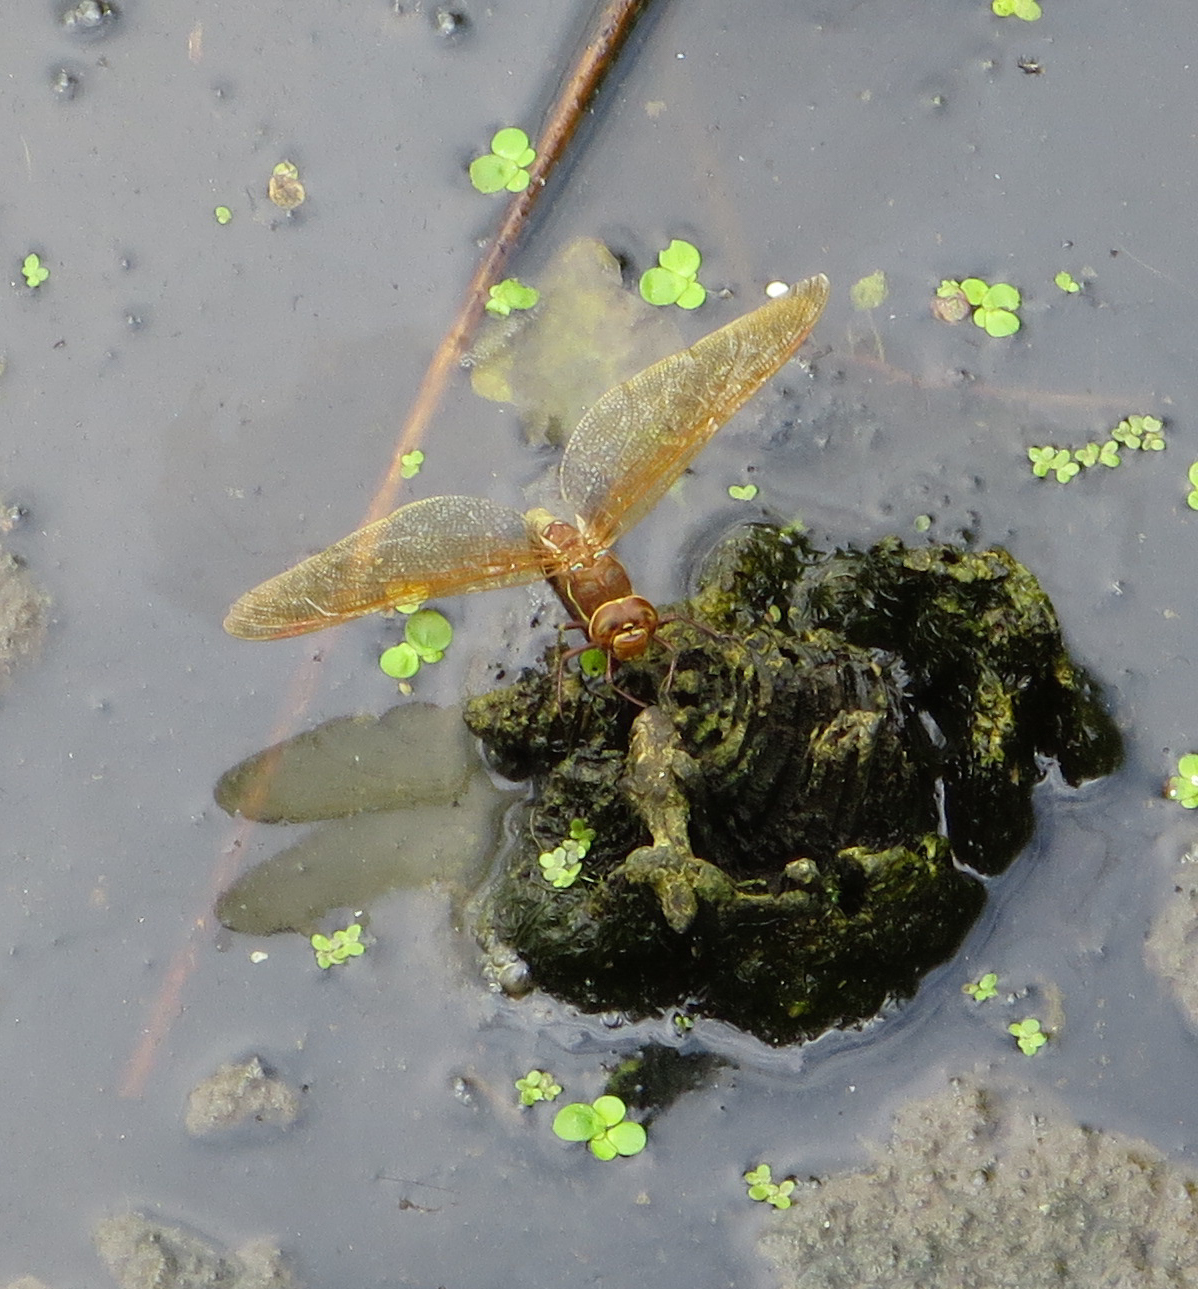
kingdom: Animalia
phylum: Arthropoda
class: Insecta
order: Odonata
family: Aeshnidae
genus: Aeshna
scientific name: Aeshna grandis
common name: Brown hawker
